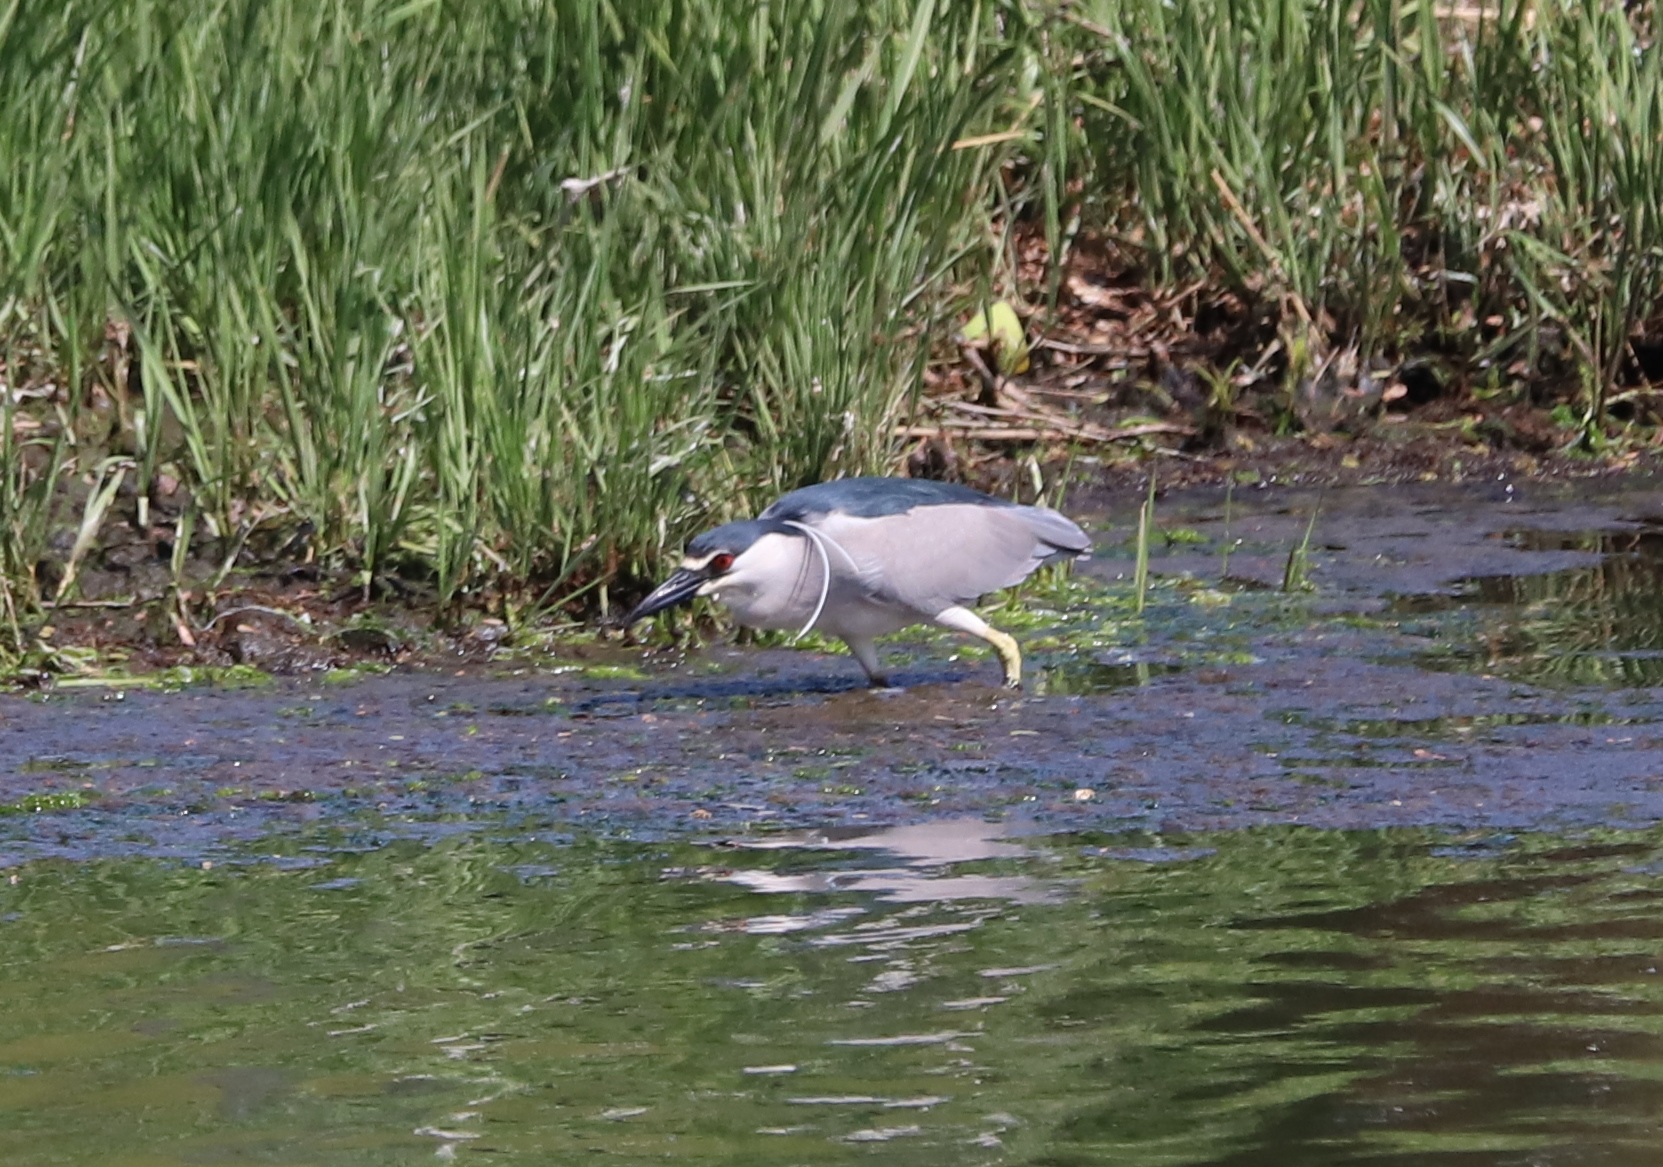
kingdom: Animalia
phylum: Chordata
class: Aves
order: Pelecaniformes
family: Ardeidae
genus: Nycticorax
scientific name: Nycticorax nycticorax
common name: Black-crowned night heron
